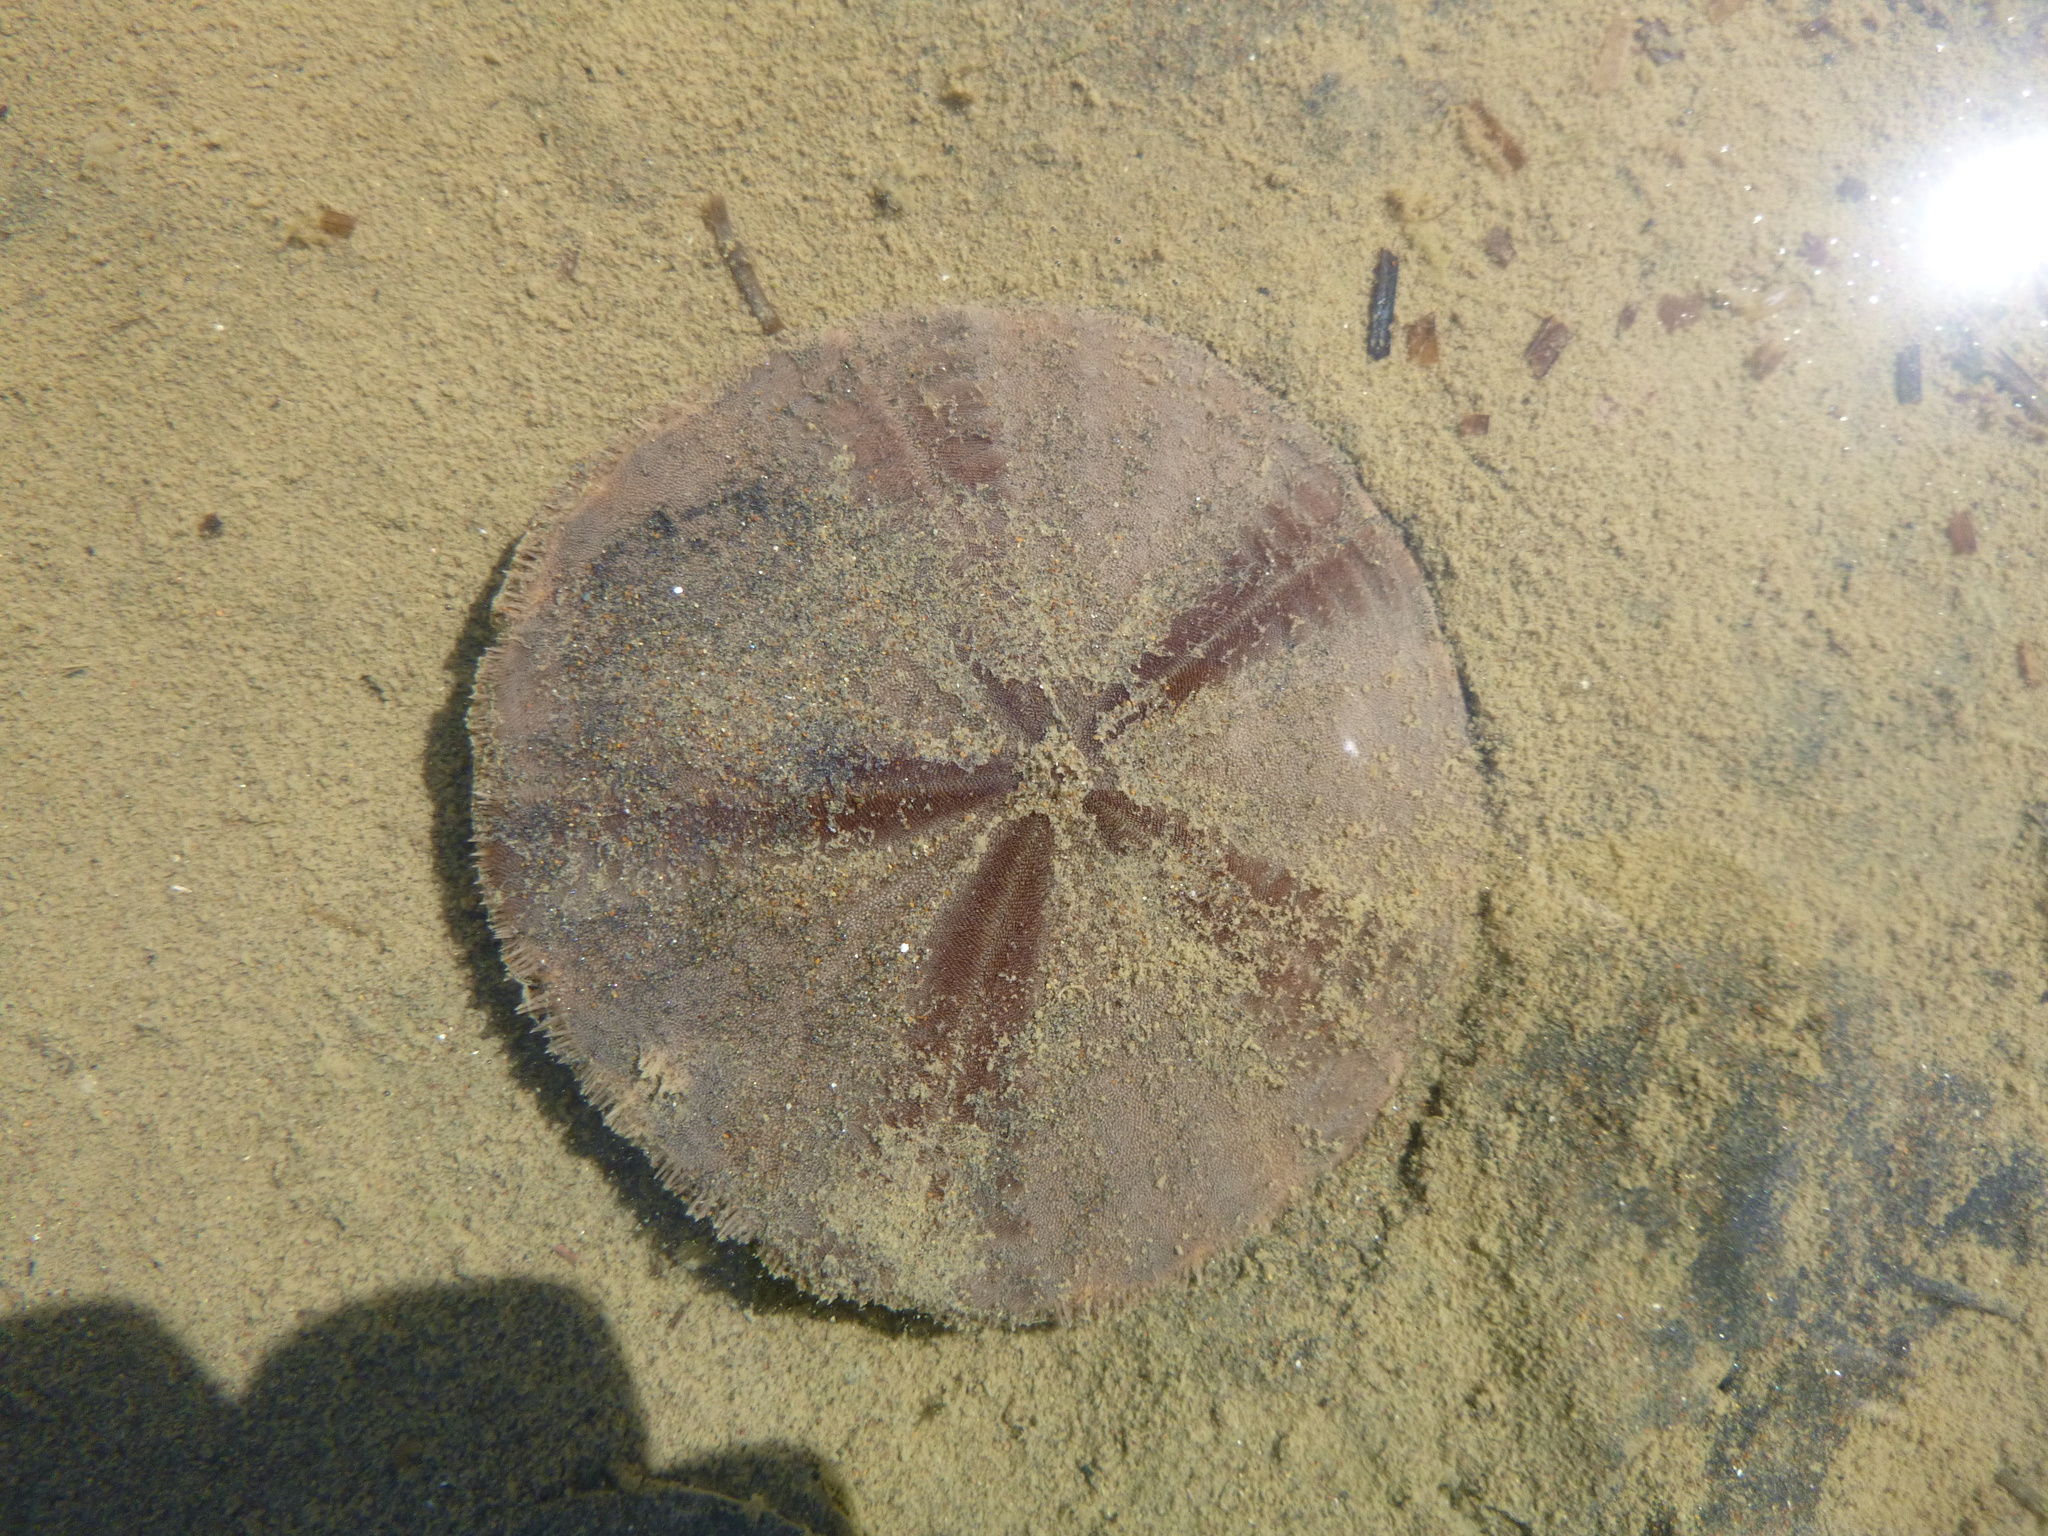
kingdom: Animalia
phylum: Echinodermata
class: Echinoidea
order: Clypeasteroida
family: Clypeasteridae
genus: Fellaster
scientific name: Fellaster zelandiae
